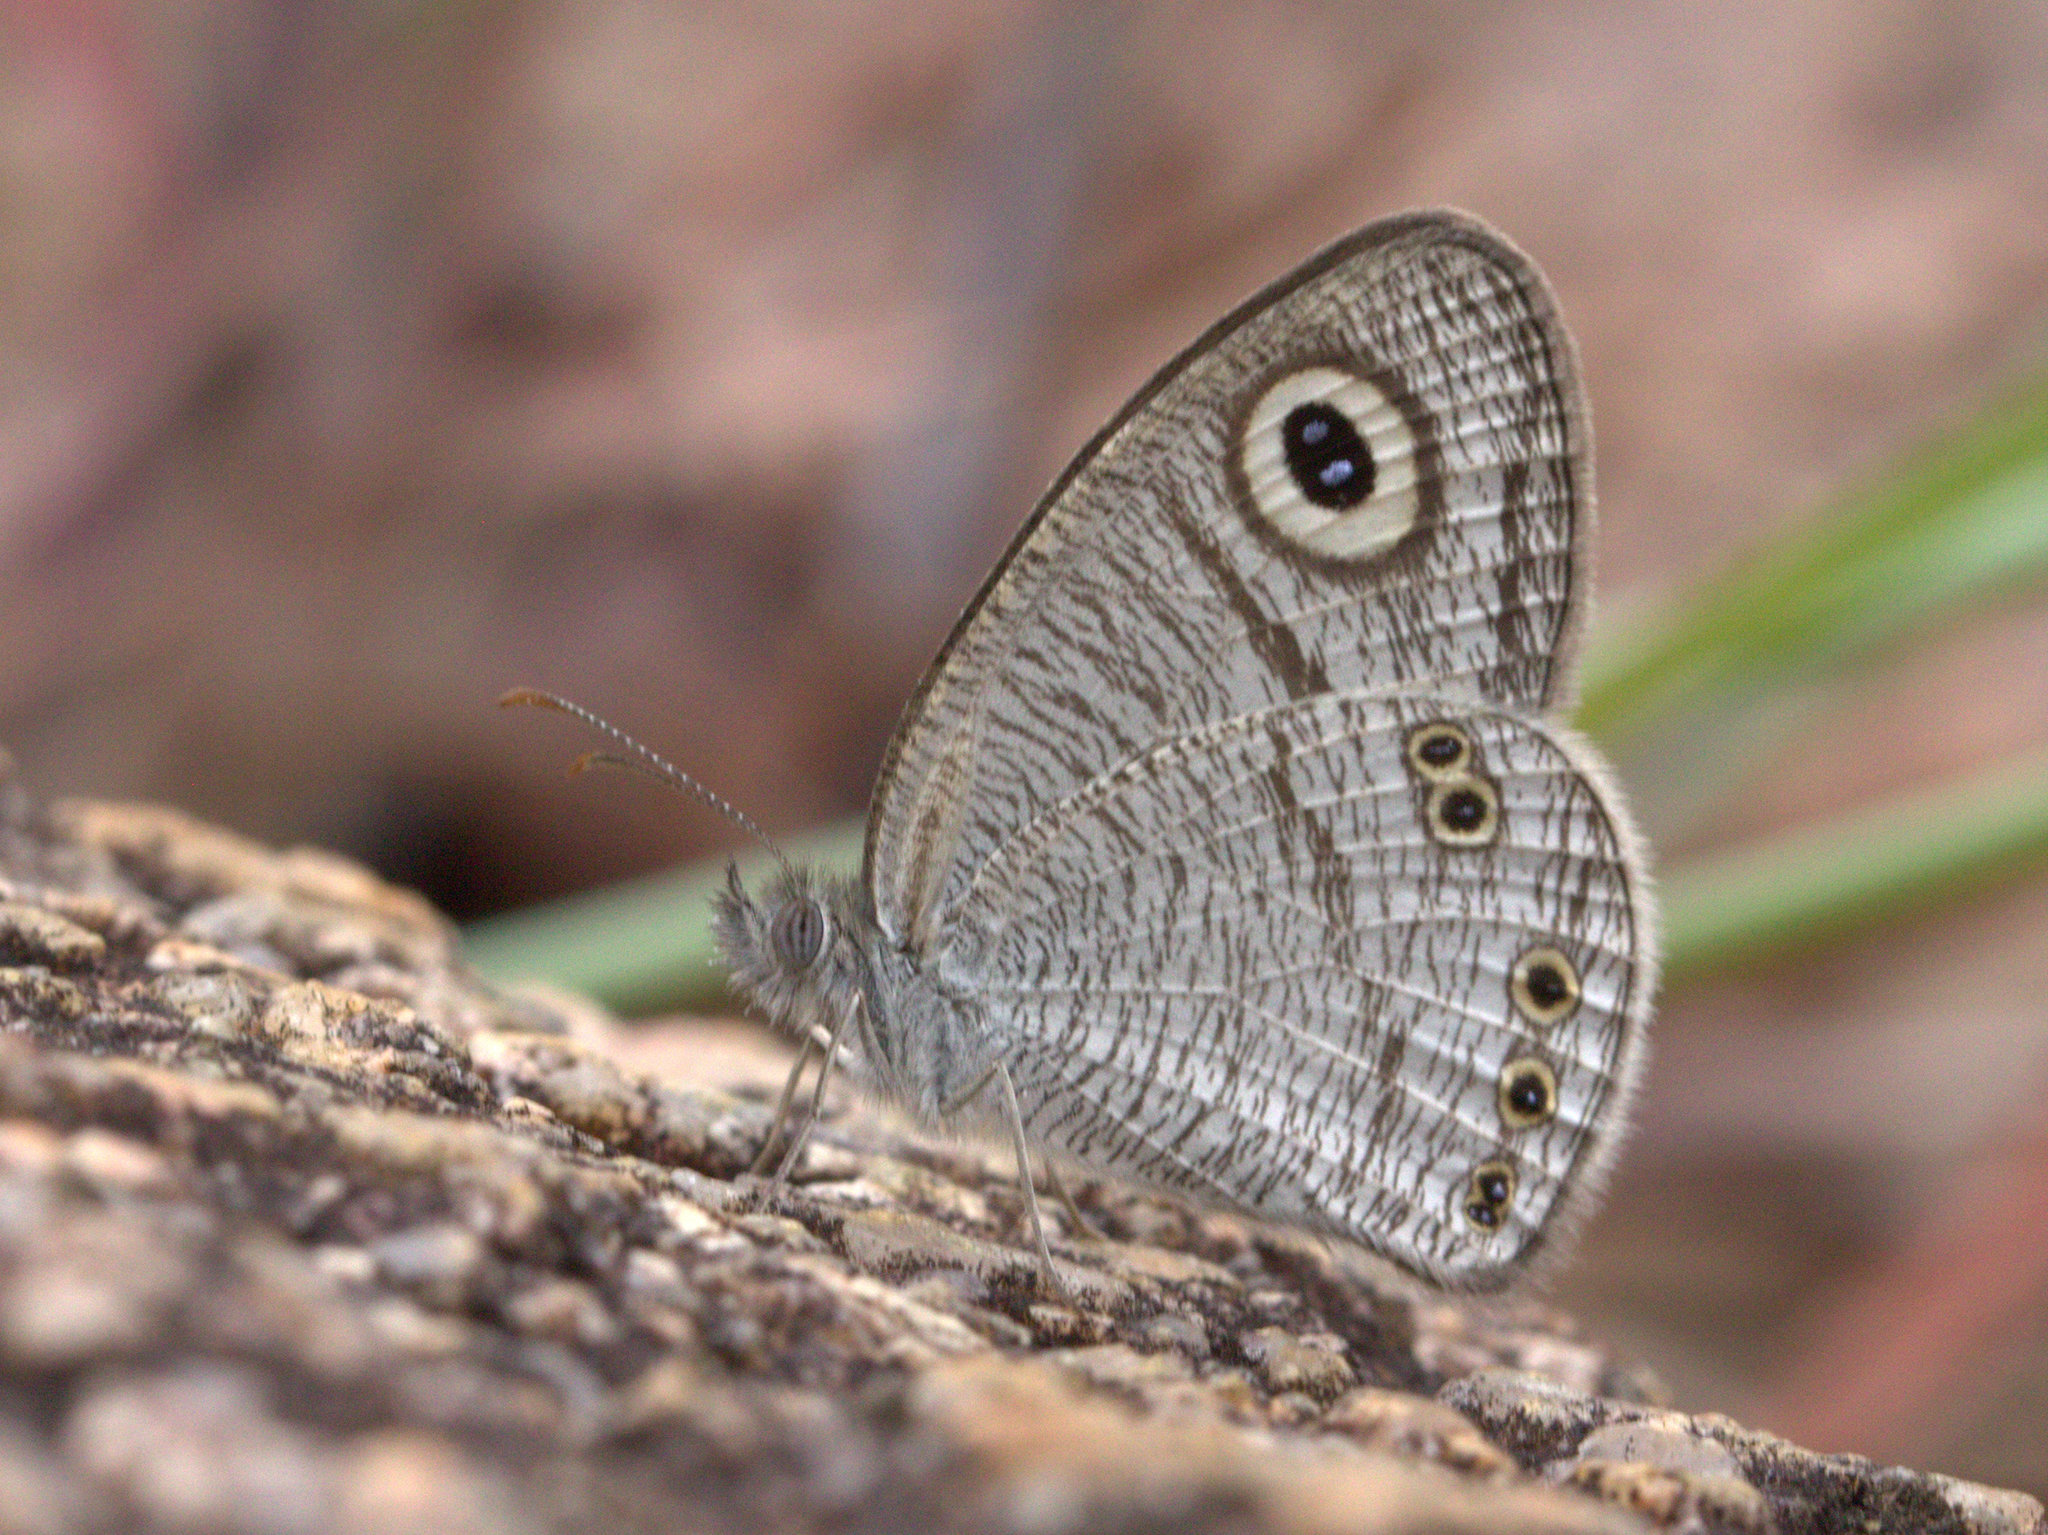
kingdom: Animalia
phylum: Arthropoda
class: Insecta
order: Lepidoptera
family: Nymphalidae
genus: Ypthima
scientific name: Ypthima avanta
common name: Jewel five-ring
